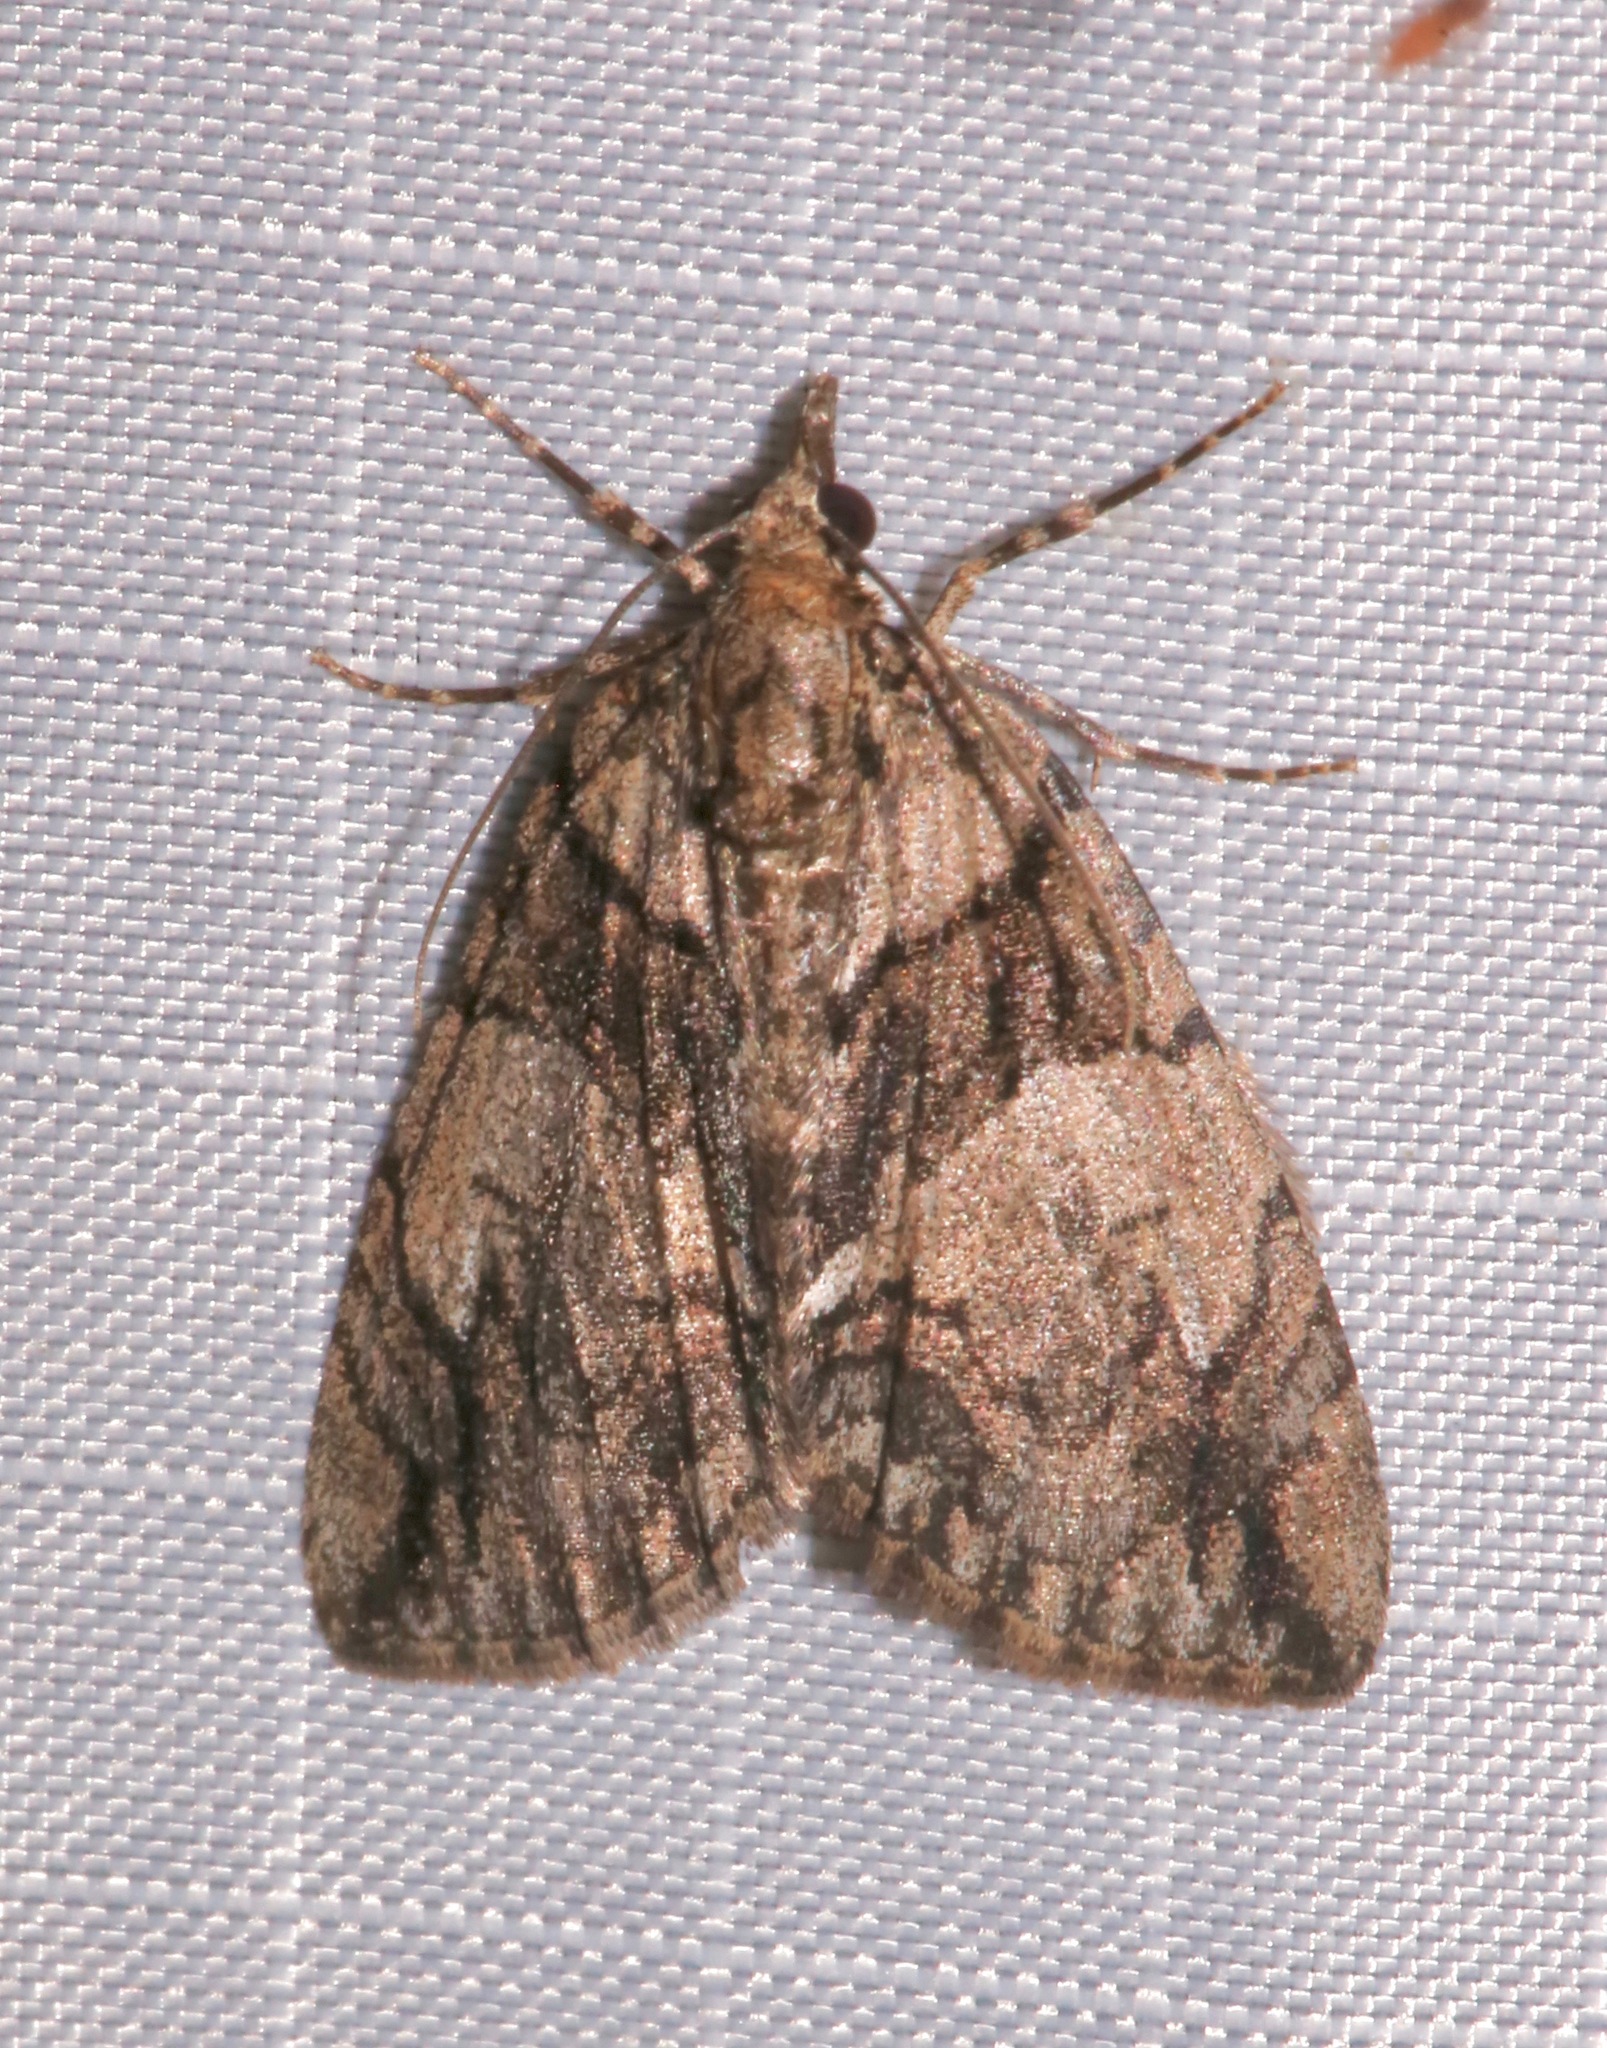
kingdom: Animalia
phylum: Arthropoda
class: Insecta
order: Lepidoptera
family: Geometridae
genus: Hydriomena
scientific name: Hydriomena chiricahuata
